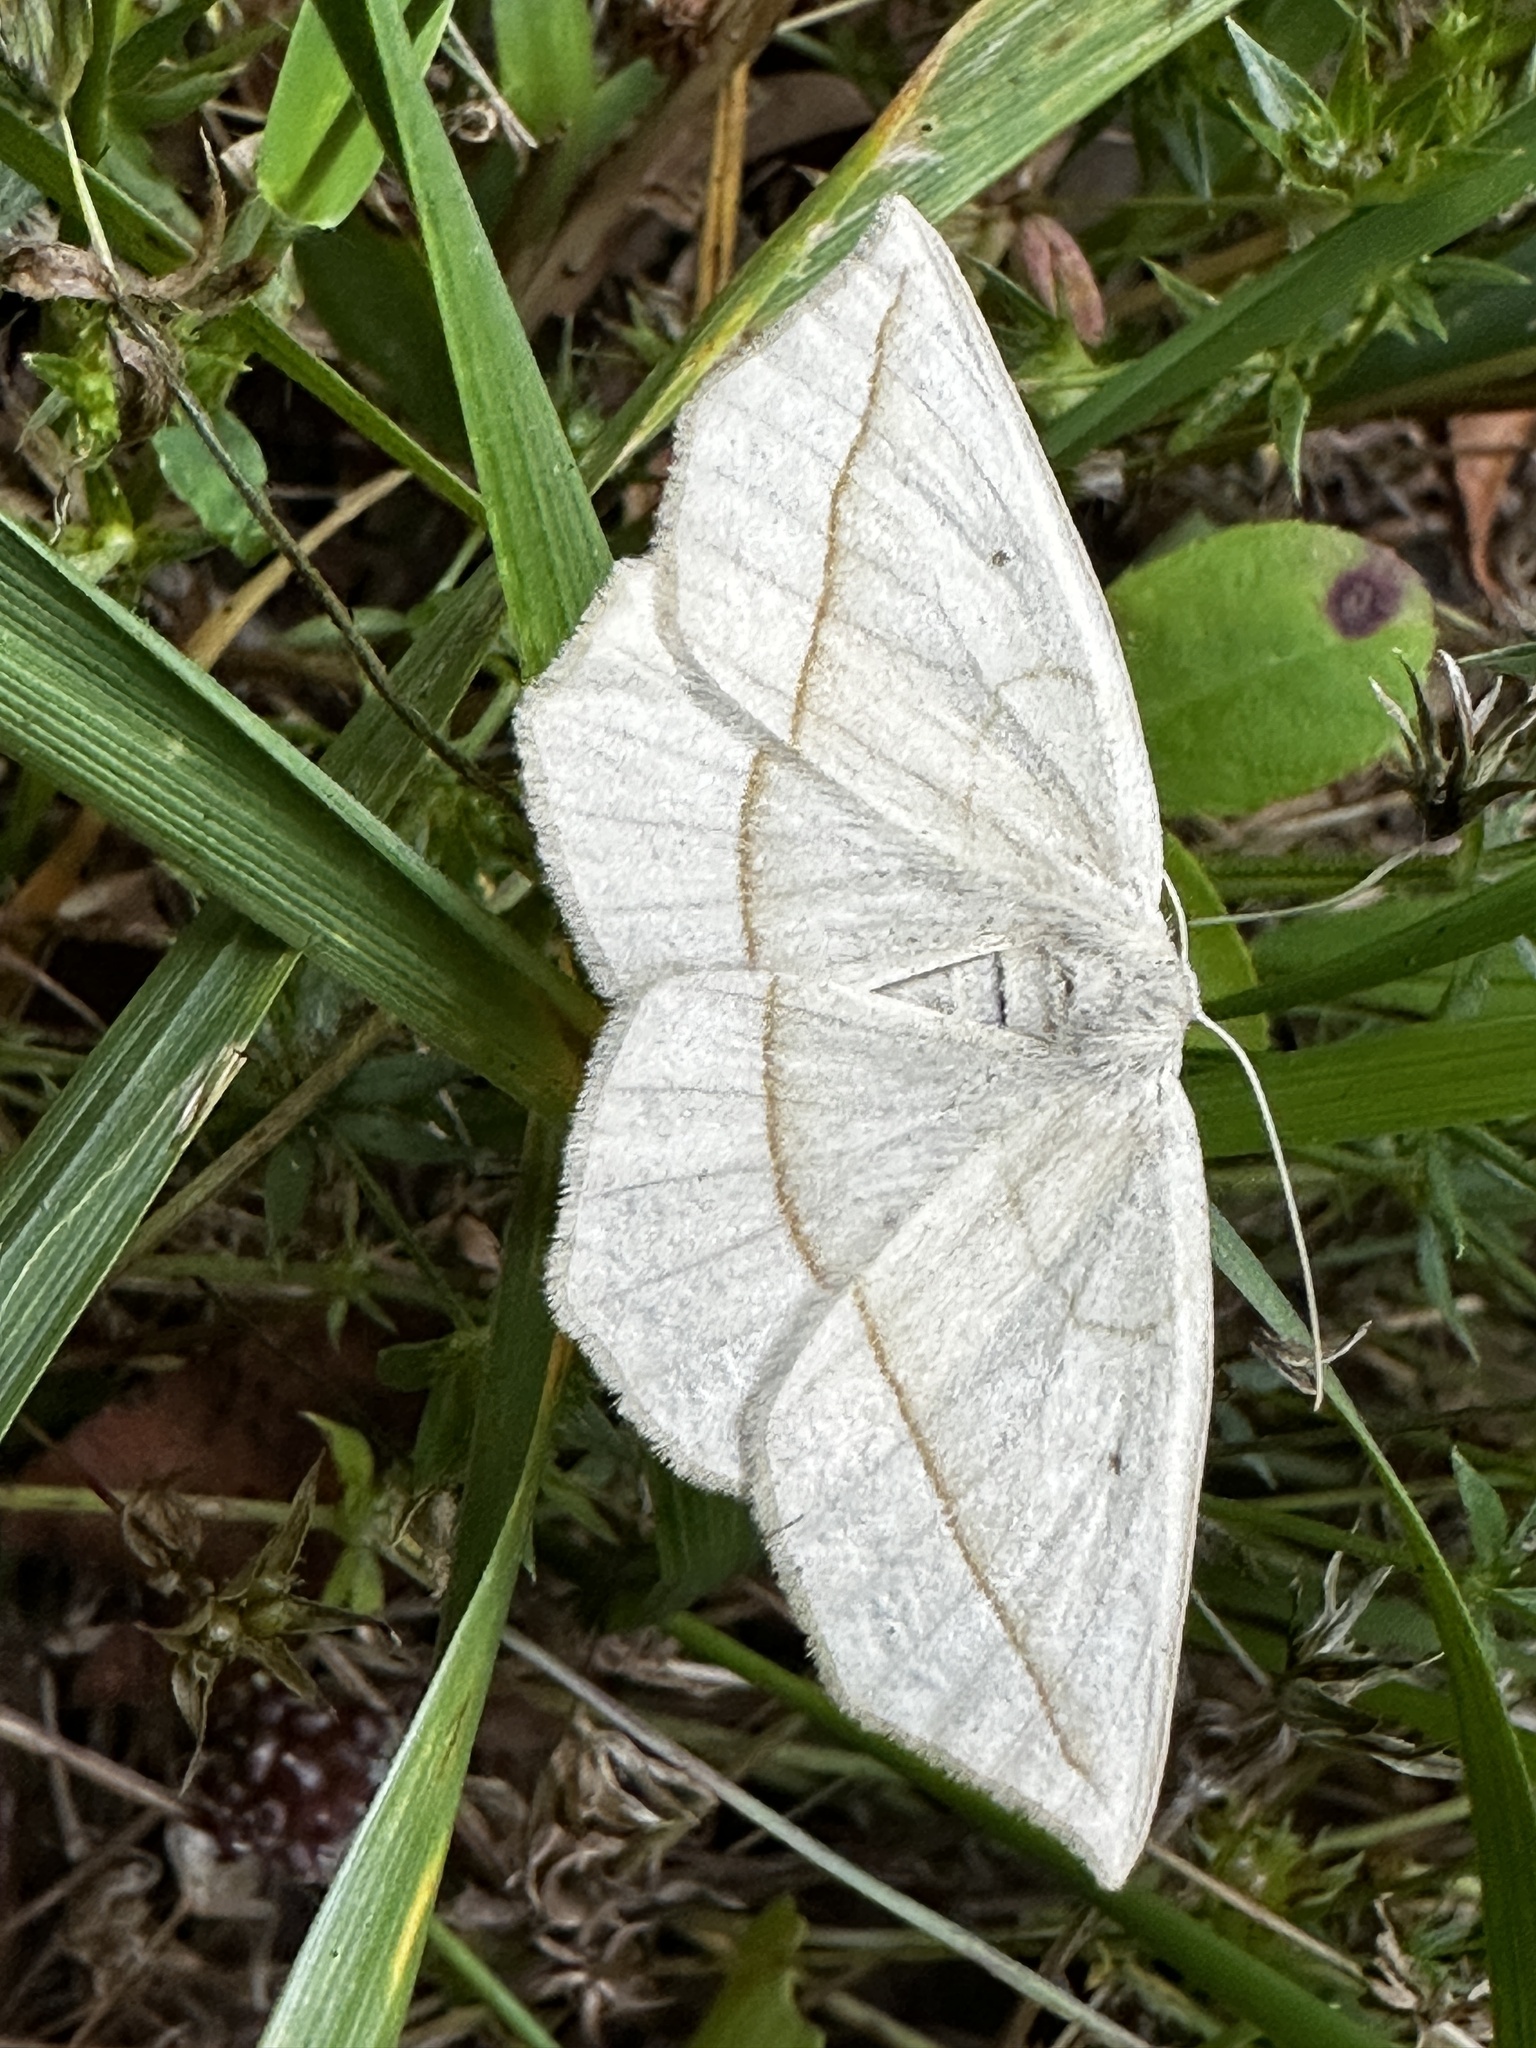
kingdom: Animalia
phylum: Arthropoda
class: Insecta
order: Lepidoptera
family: Geometridae
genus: Eusarca
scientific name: Eusarca confusaria
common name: Confused eusarca
